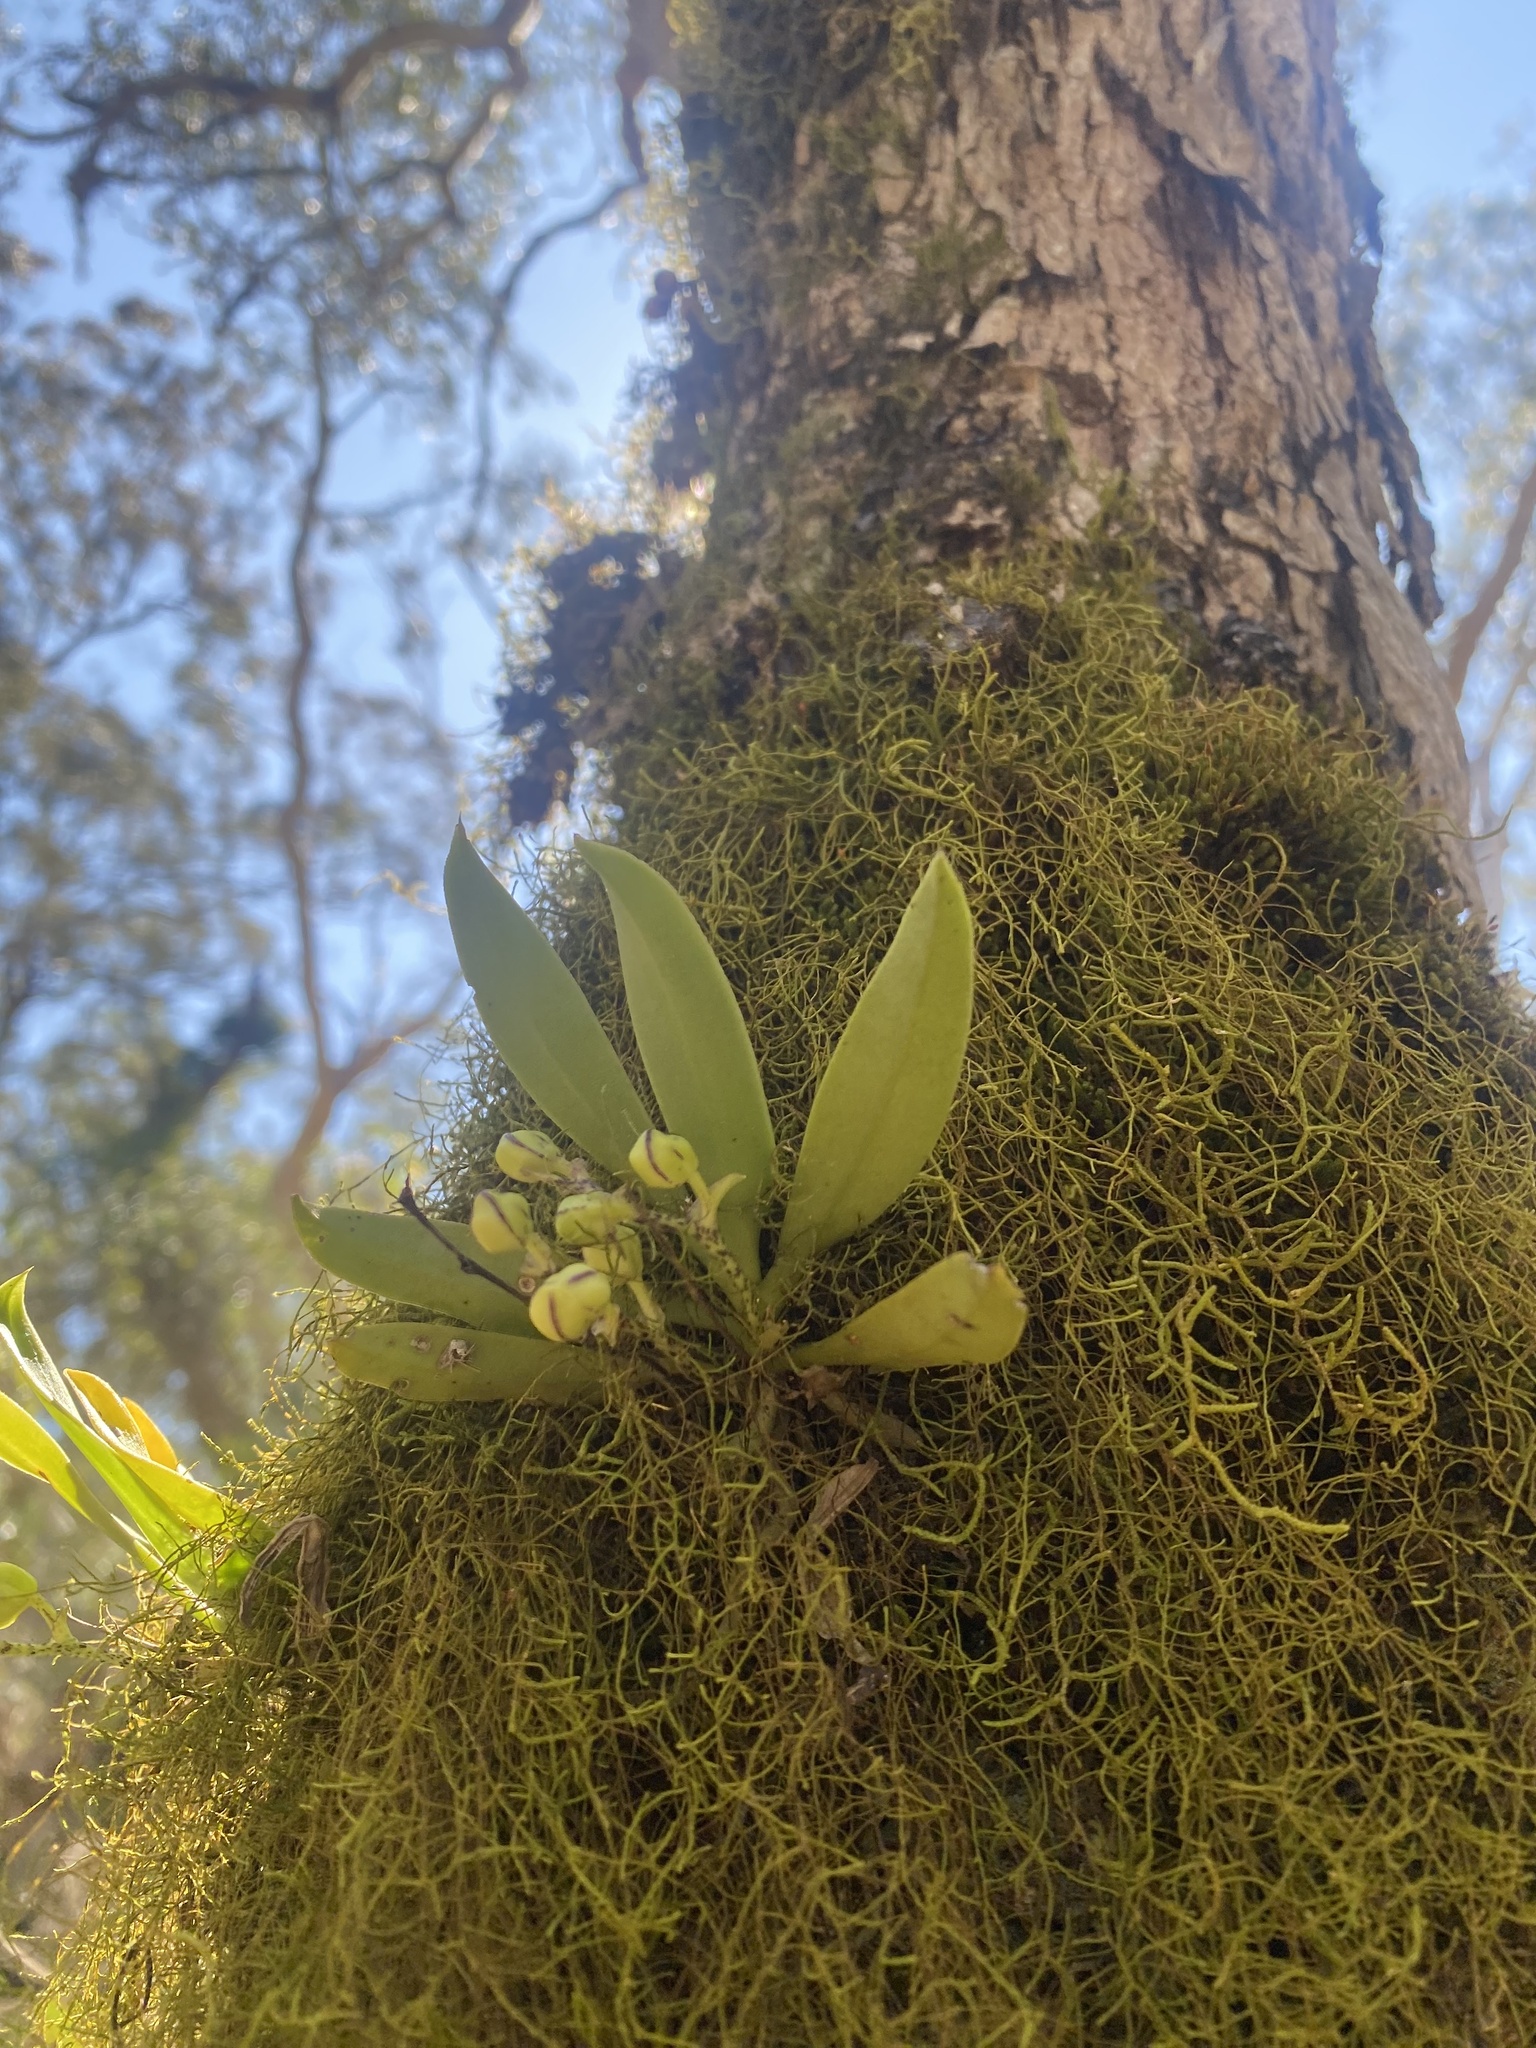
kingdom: Plantae
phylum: Tracheophyta
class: Liliopsida
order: Asparagales
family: Orchidaceae
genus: Sarcochilus
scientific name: Sarcochilus falcatus
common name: Orange blossom orchid
